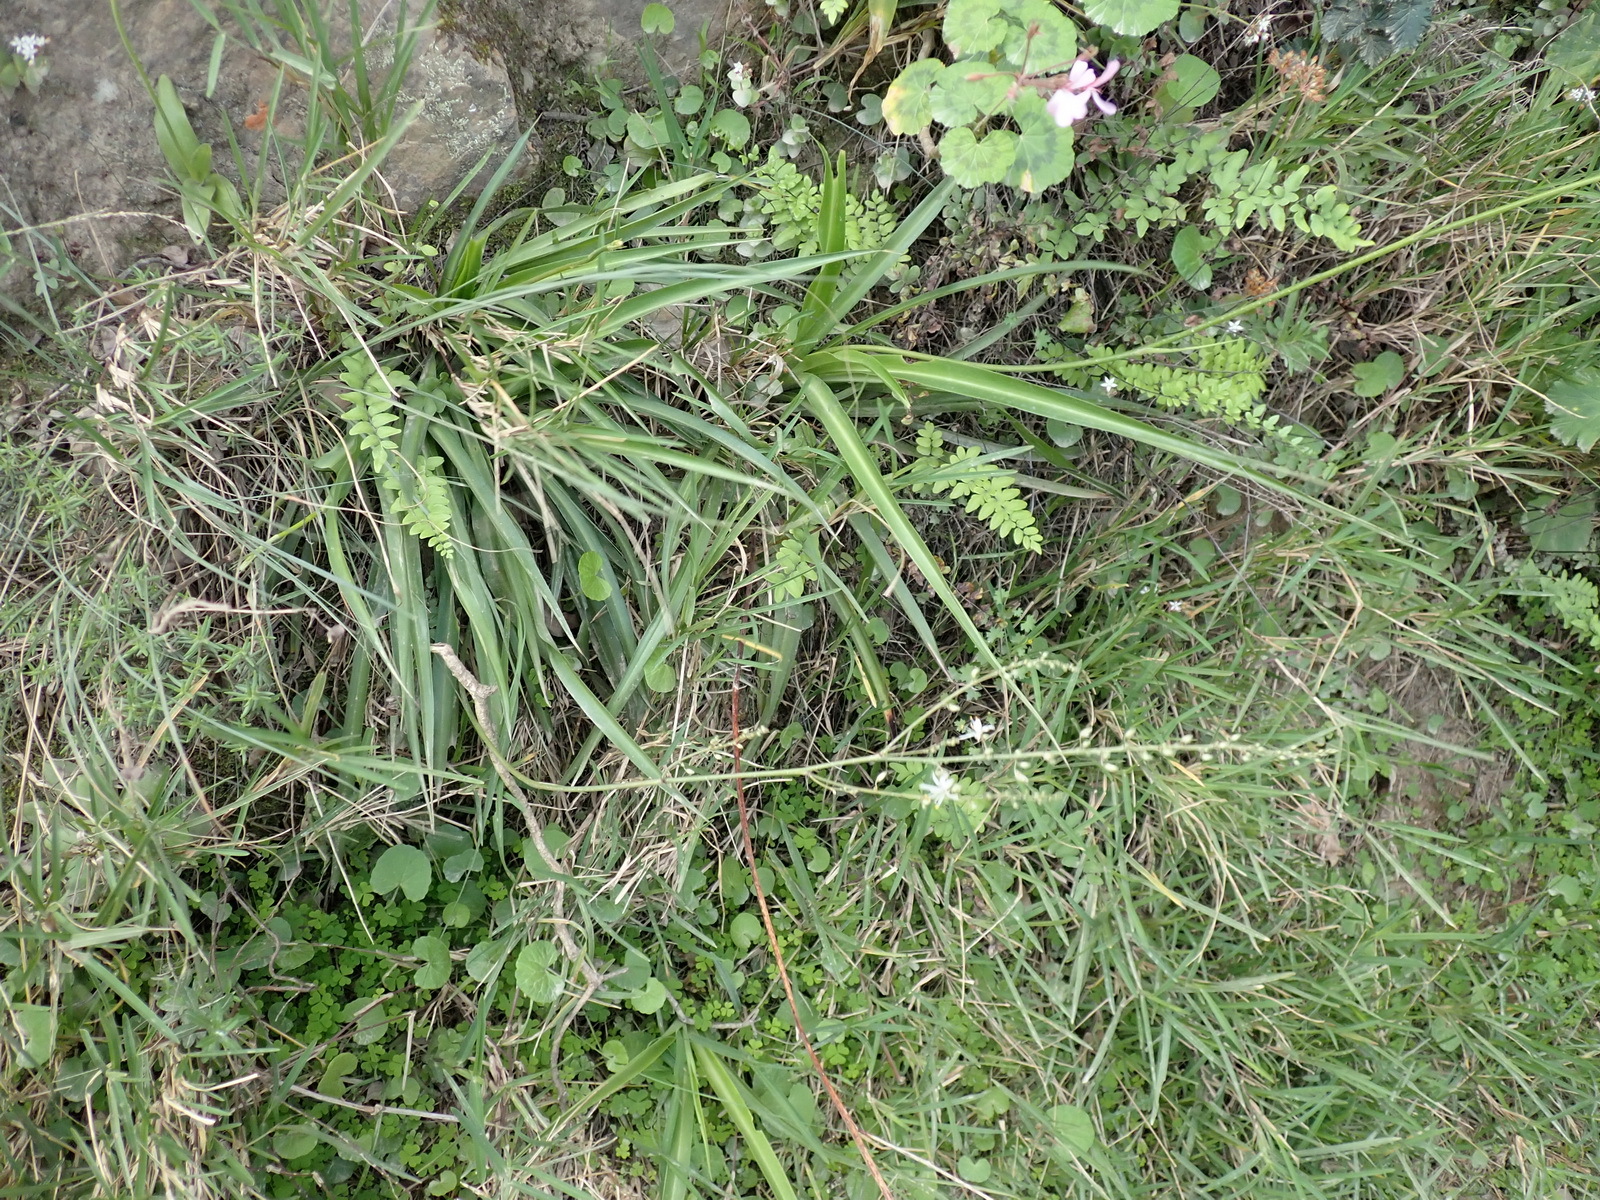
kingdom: Plantae
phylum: Tracheophyta
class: Liliopsida
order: Asparagales
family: Asparagaceae
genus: Chlorophytum
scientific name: Chlorophytum comosum
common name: Spider plant
